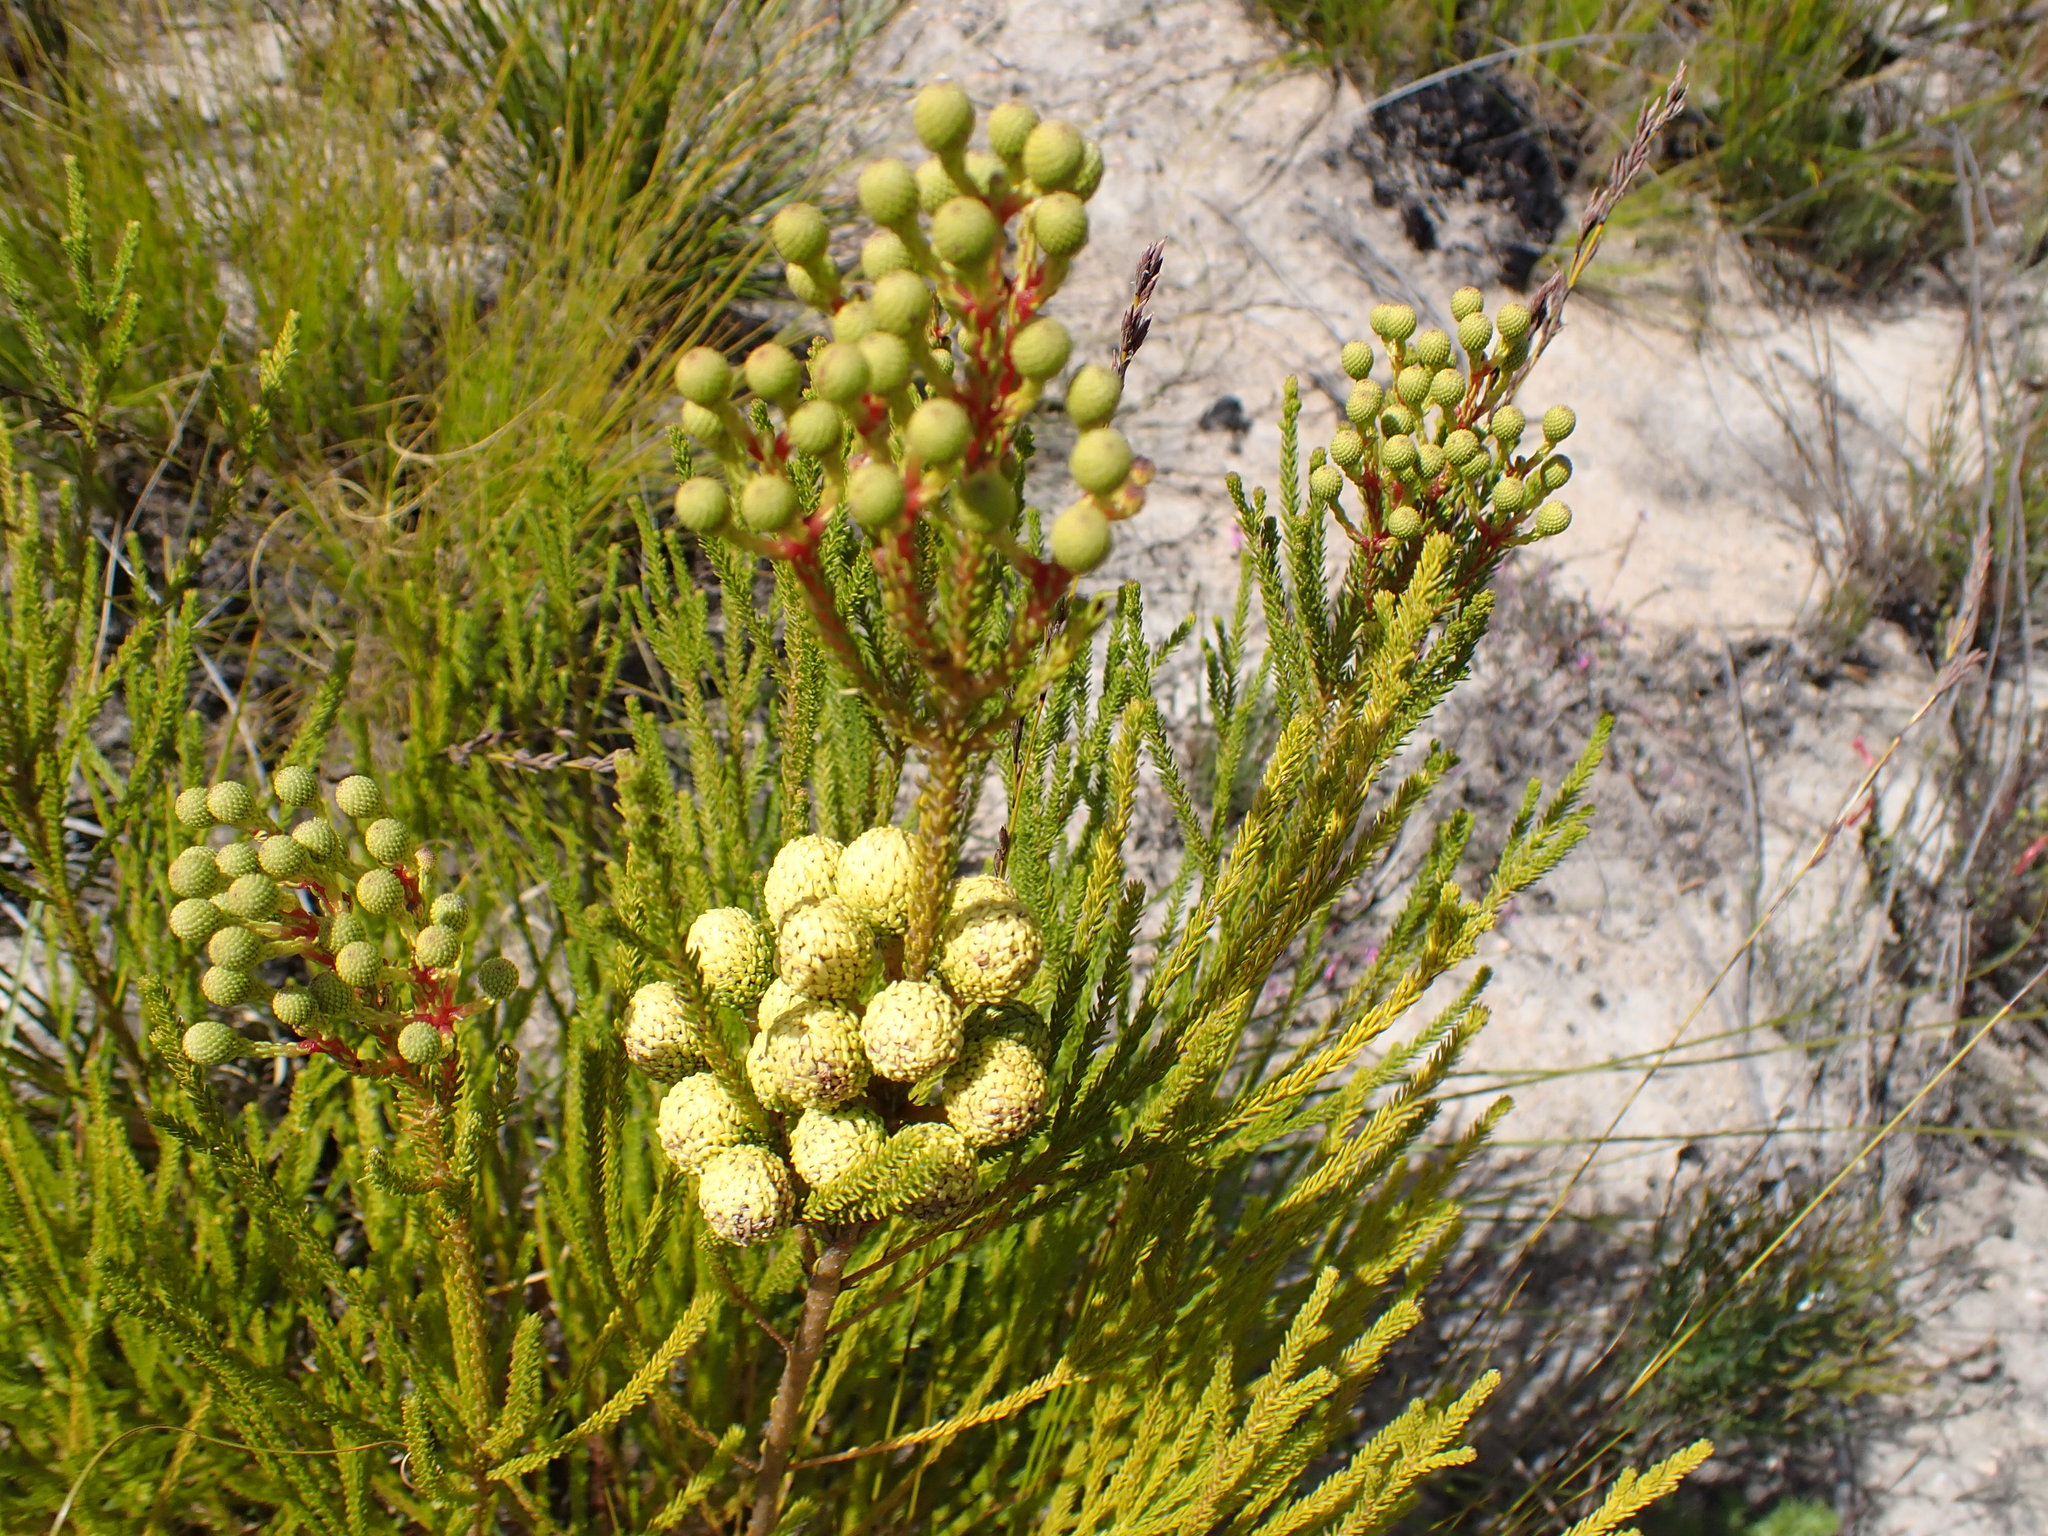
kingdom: Plantae
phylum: Tracheophyta
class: Magnoliopsida
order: Bruniales
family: Bruniaceae
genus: Berzelia
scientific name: Berzelia intermedia
